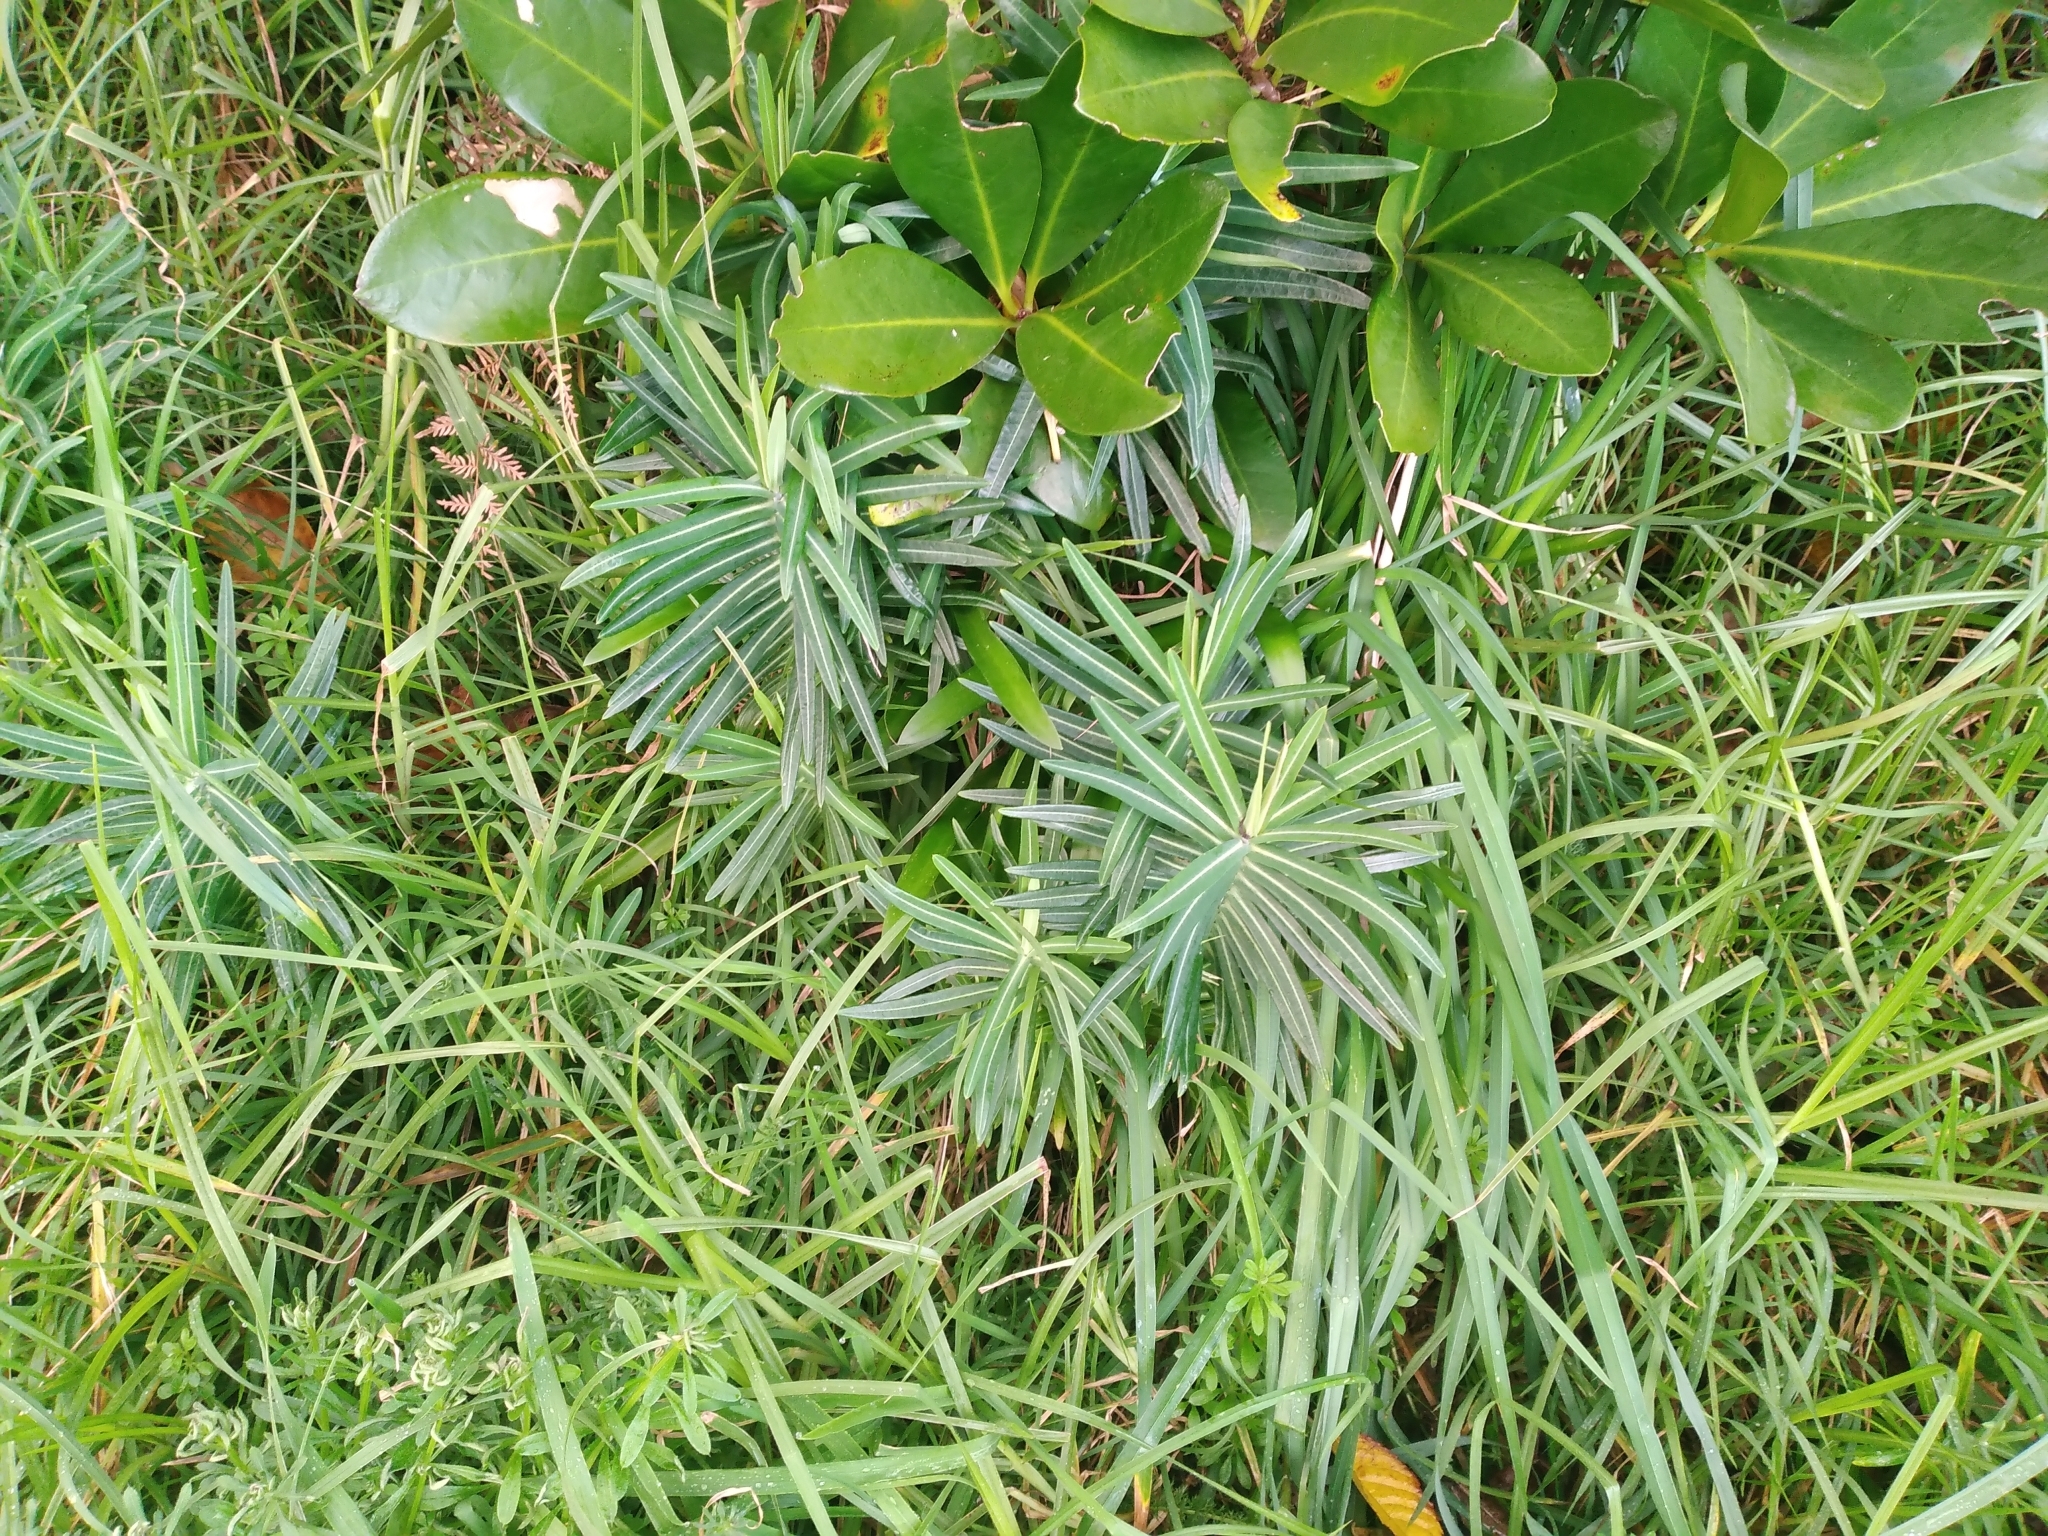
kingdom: Plantae
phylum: Tracheophyta
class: Magnoliopsida
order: Malpighiales
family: Euphorbiaceae
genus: Euphorbia
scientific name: Euphorbia lathyris
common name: Caper spurge
